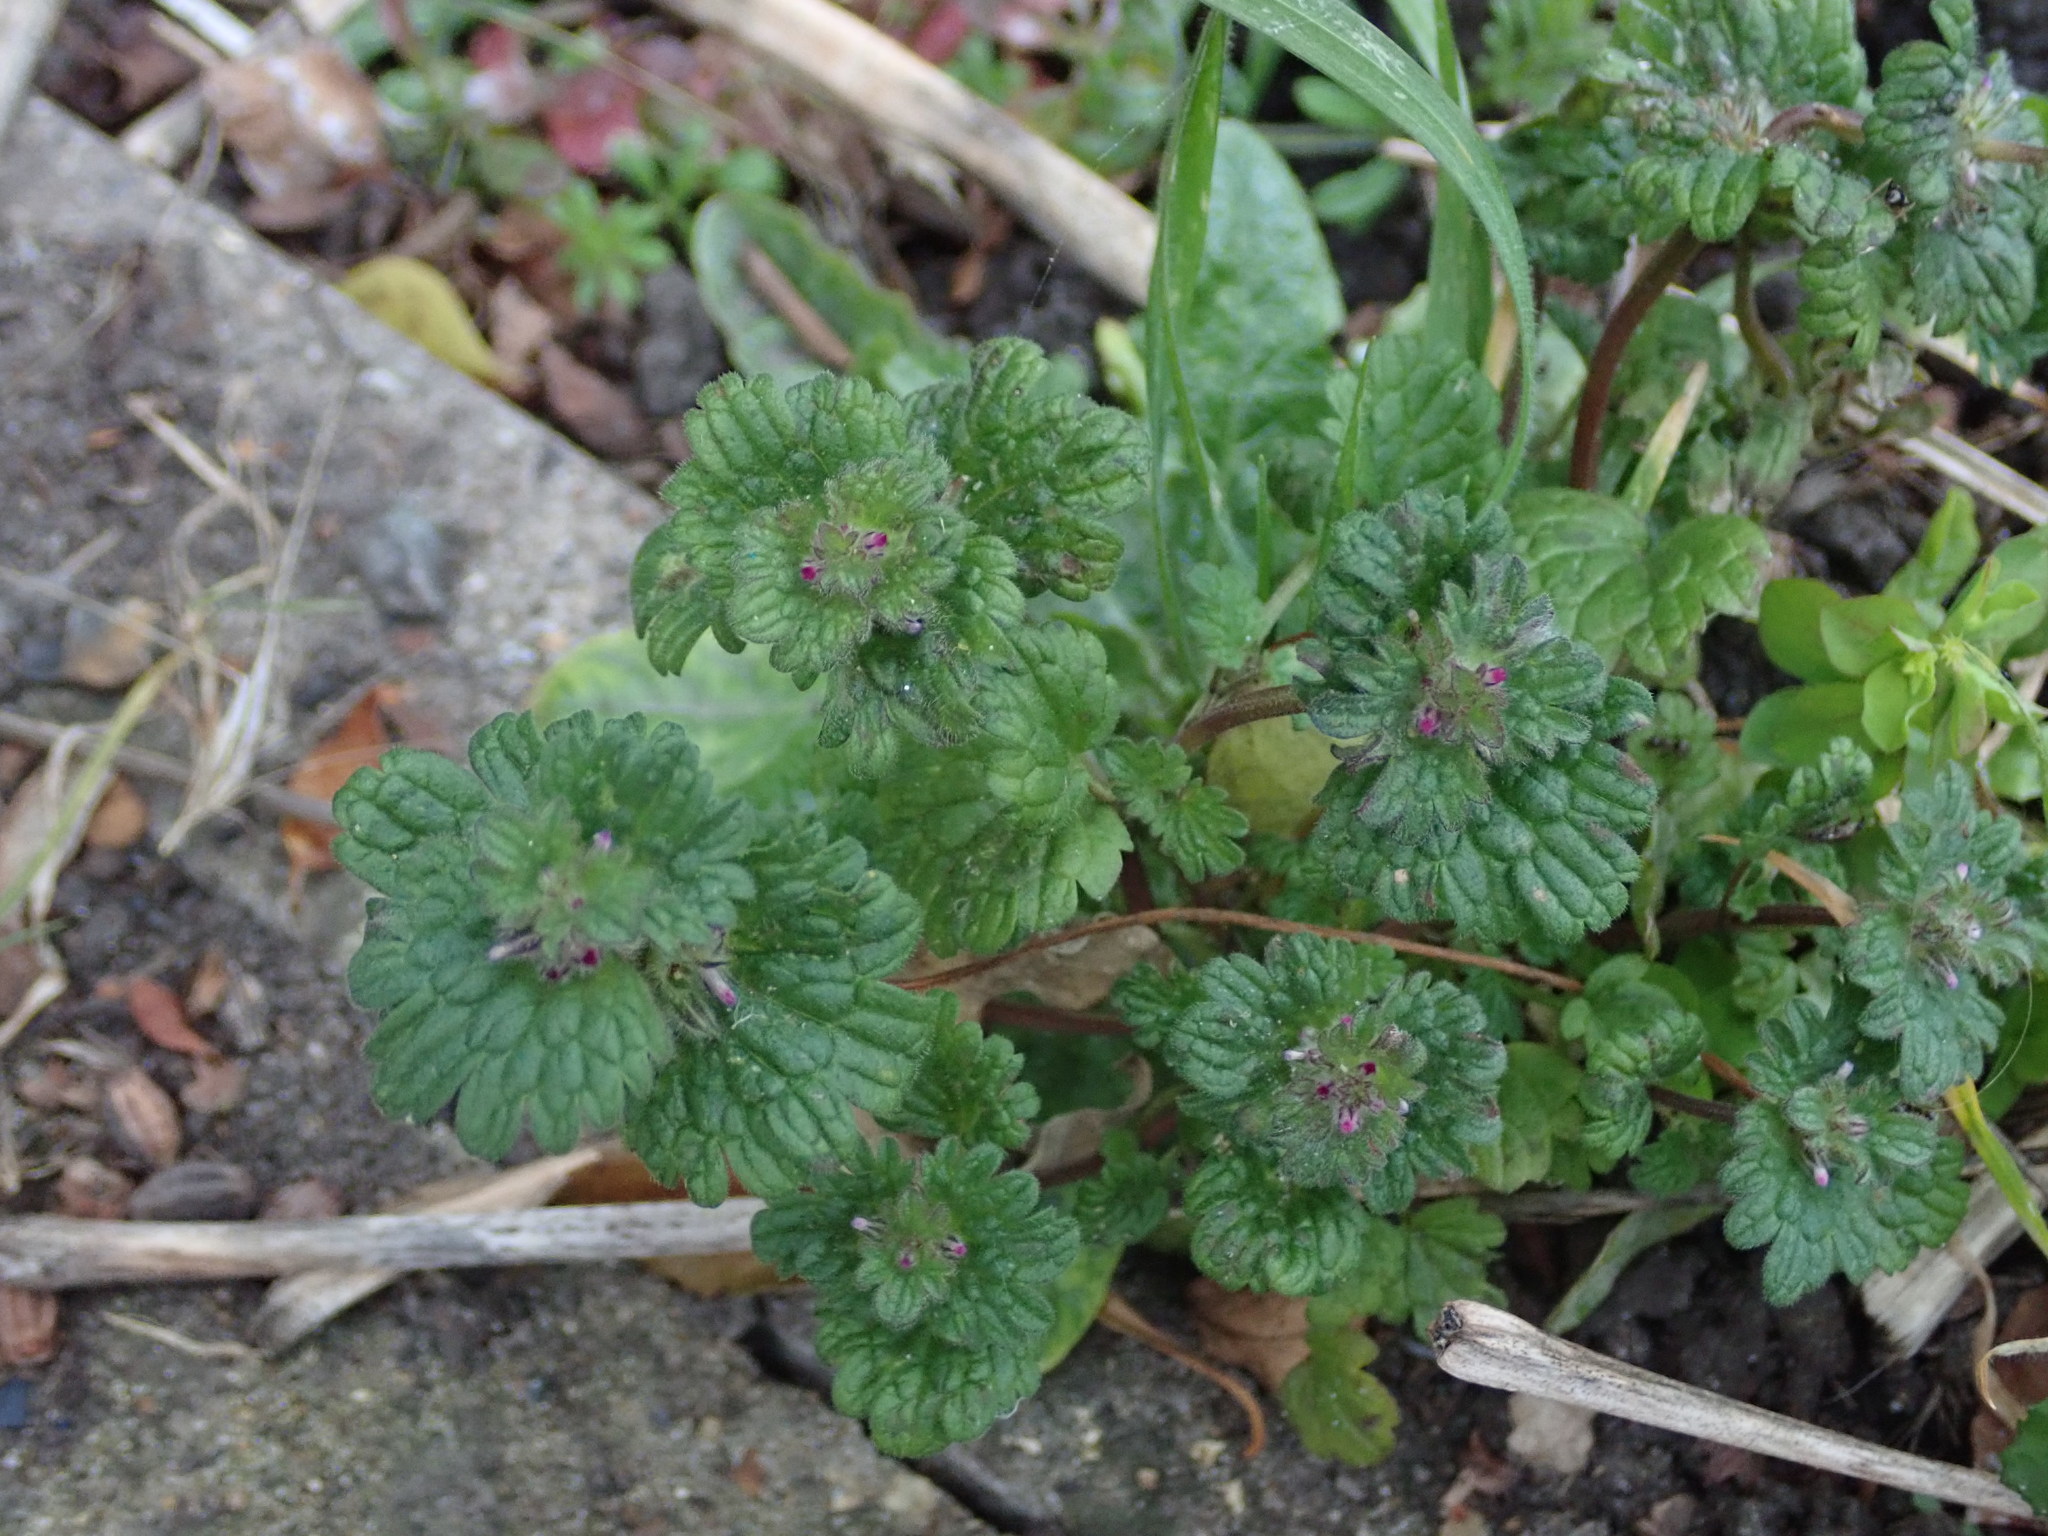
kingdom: Plantae
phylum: Tracheophyta
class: Magnoliopsida
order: Lamiales
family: Lamiaceae
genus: Lamium
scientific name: Lamium amplexicaule
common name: Henbit dead-nettle
